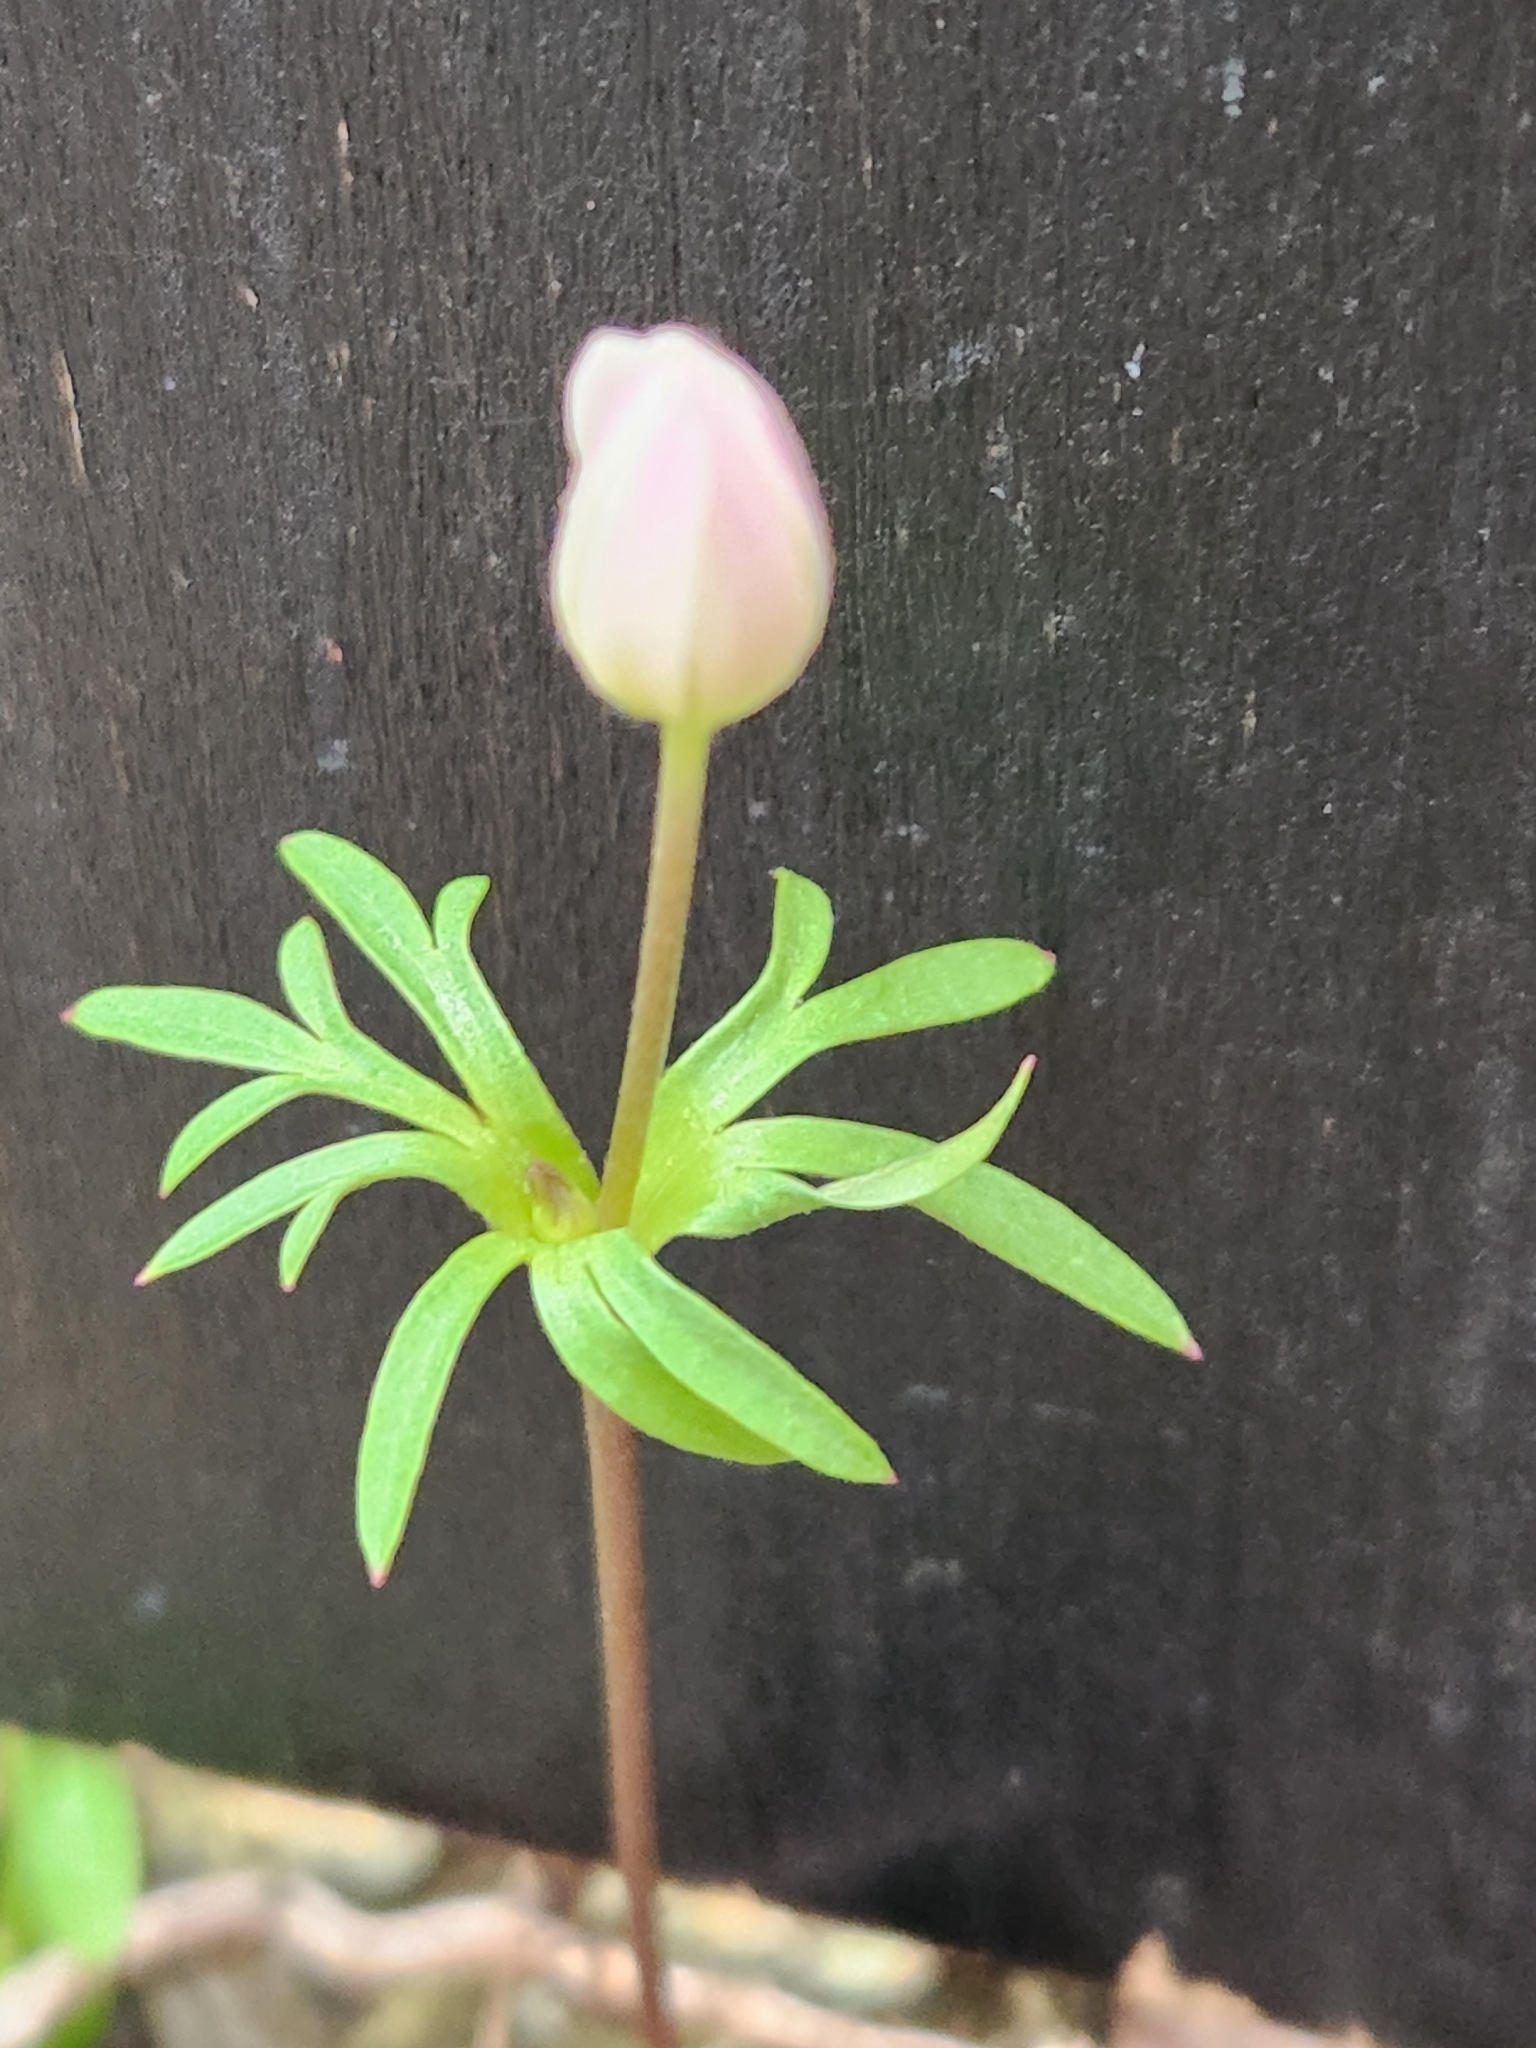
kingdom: Plantae
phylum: Tracheophyta
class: Magnoliopsida
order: Ranunculales
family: Ranunculaceae
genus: Anemone
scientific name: Anemone edwardsiana
